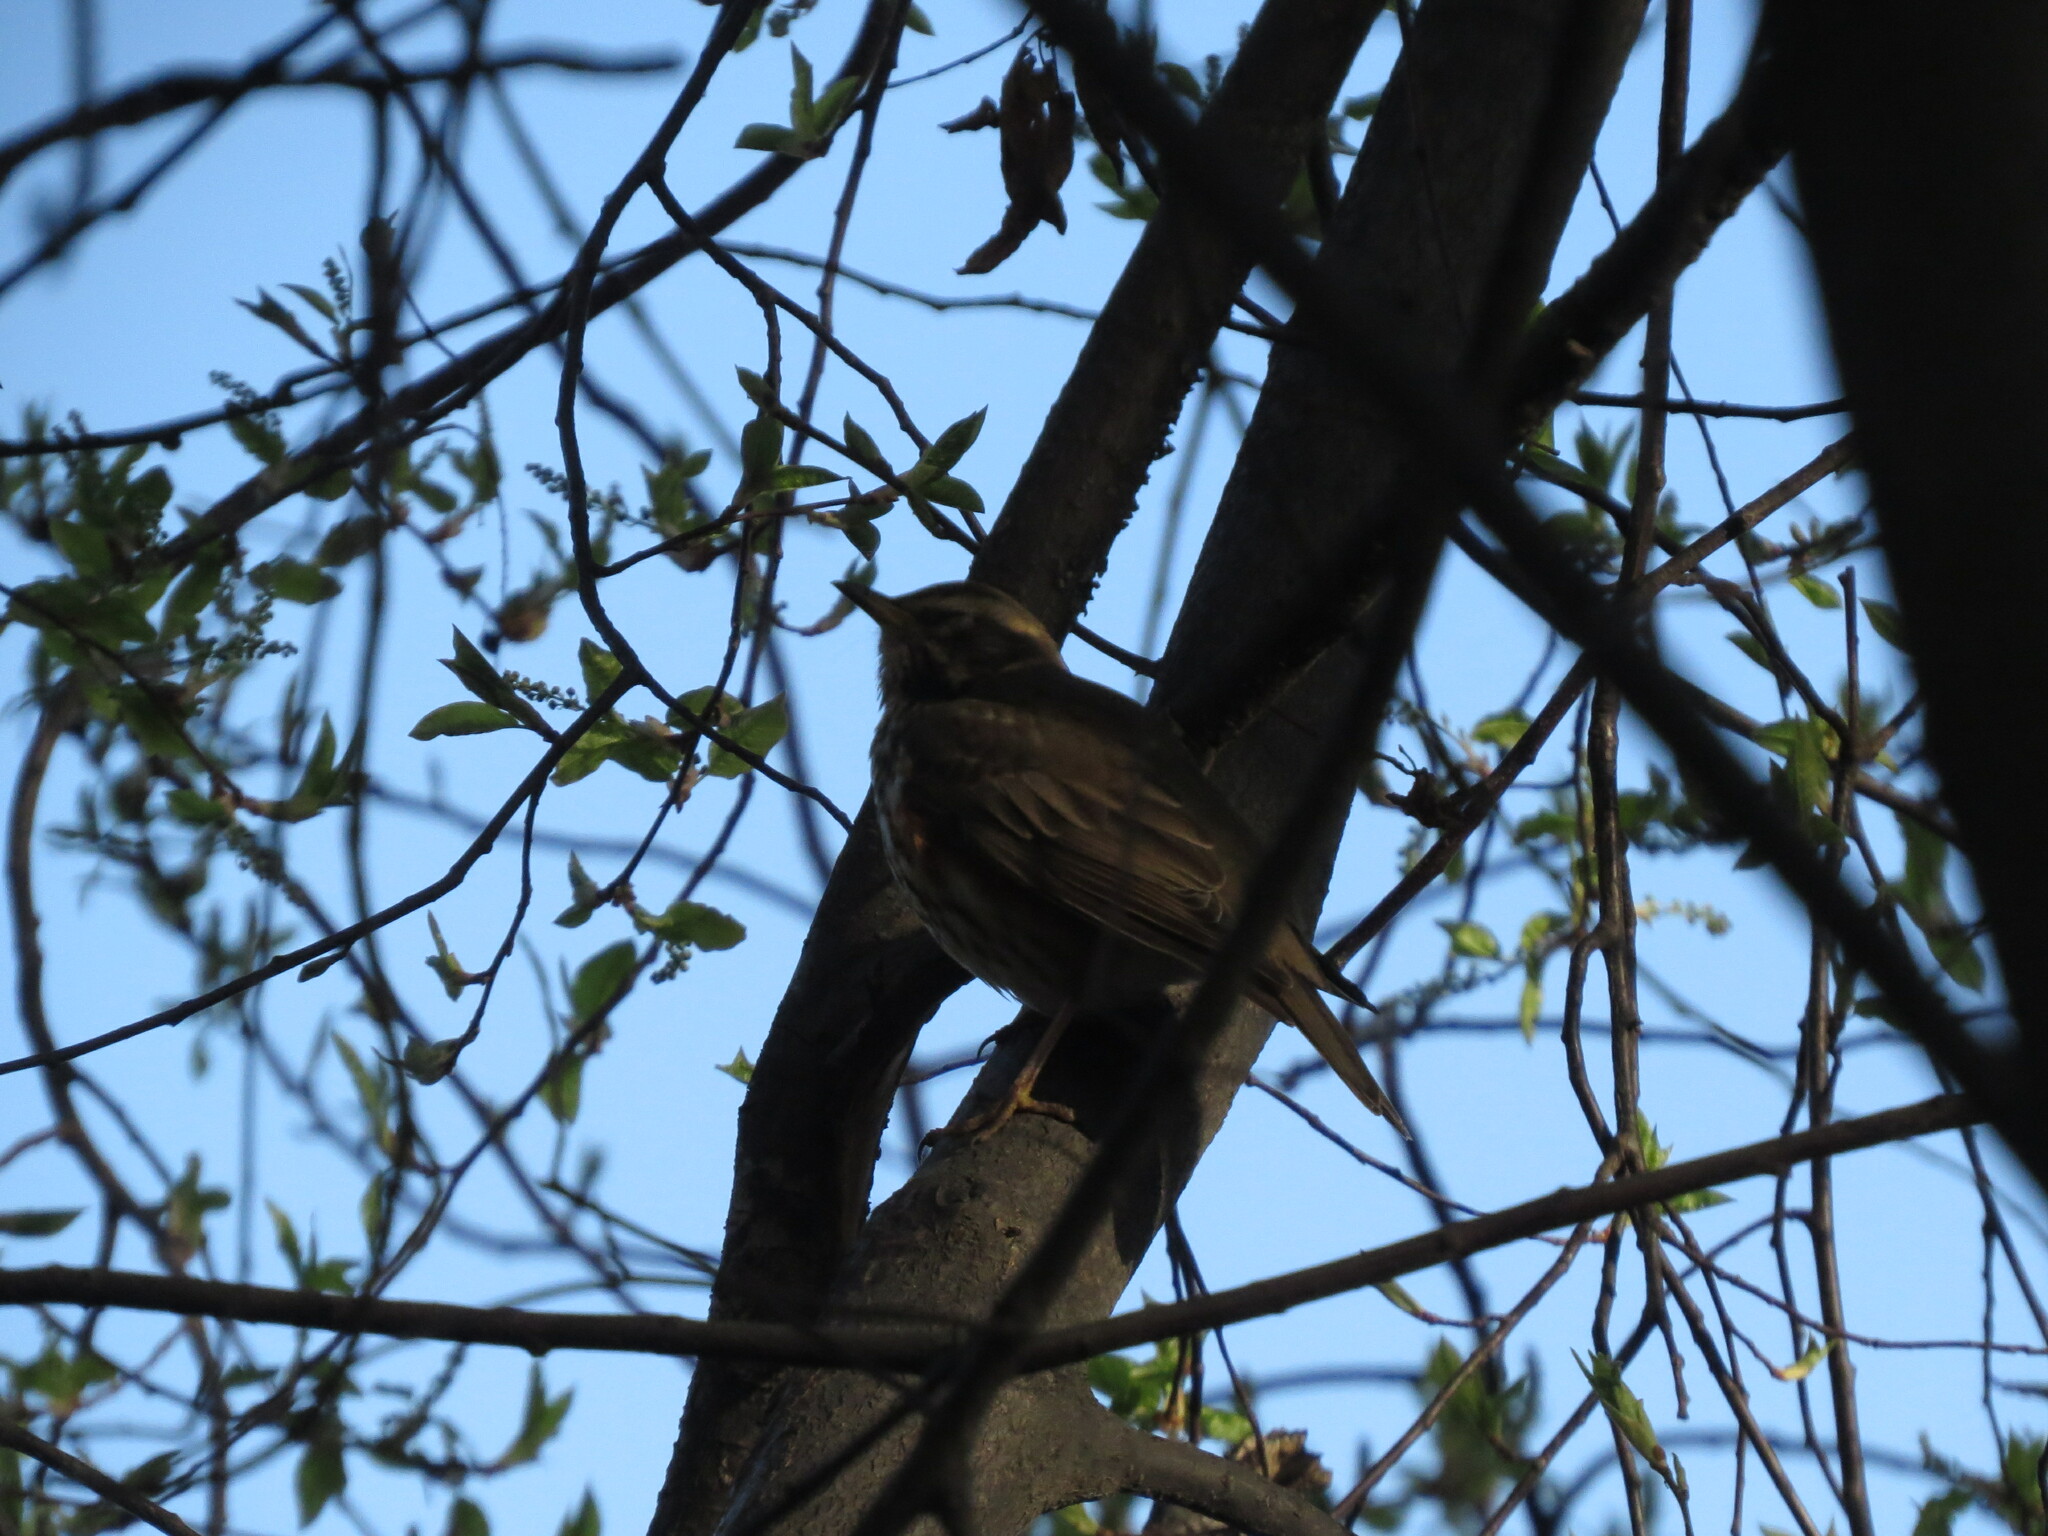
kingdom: Animalia
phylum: Chordata
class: Aves
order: Passeriformes
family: Turdidae
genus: Turdus
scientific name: Turdus iliacus
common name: Redwing
